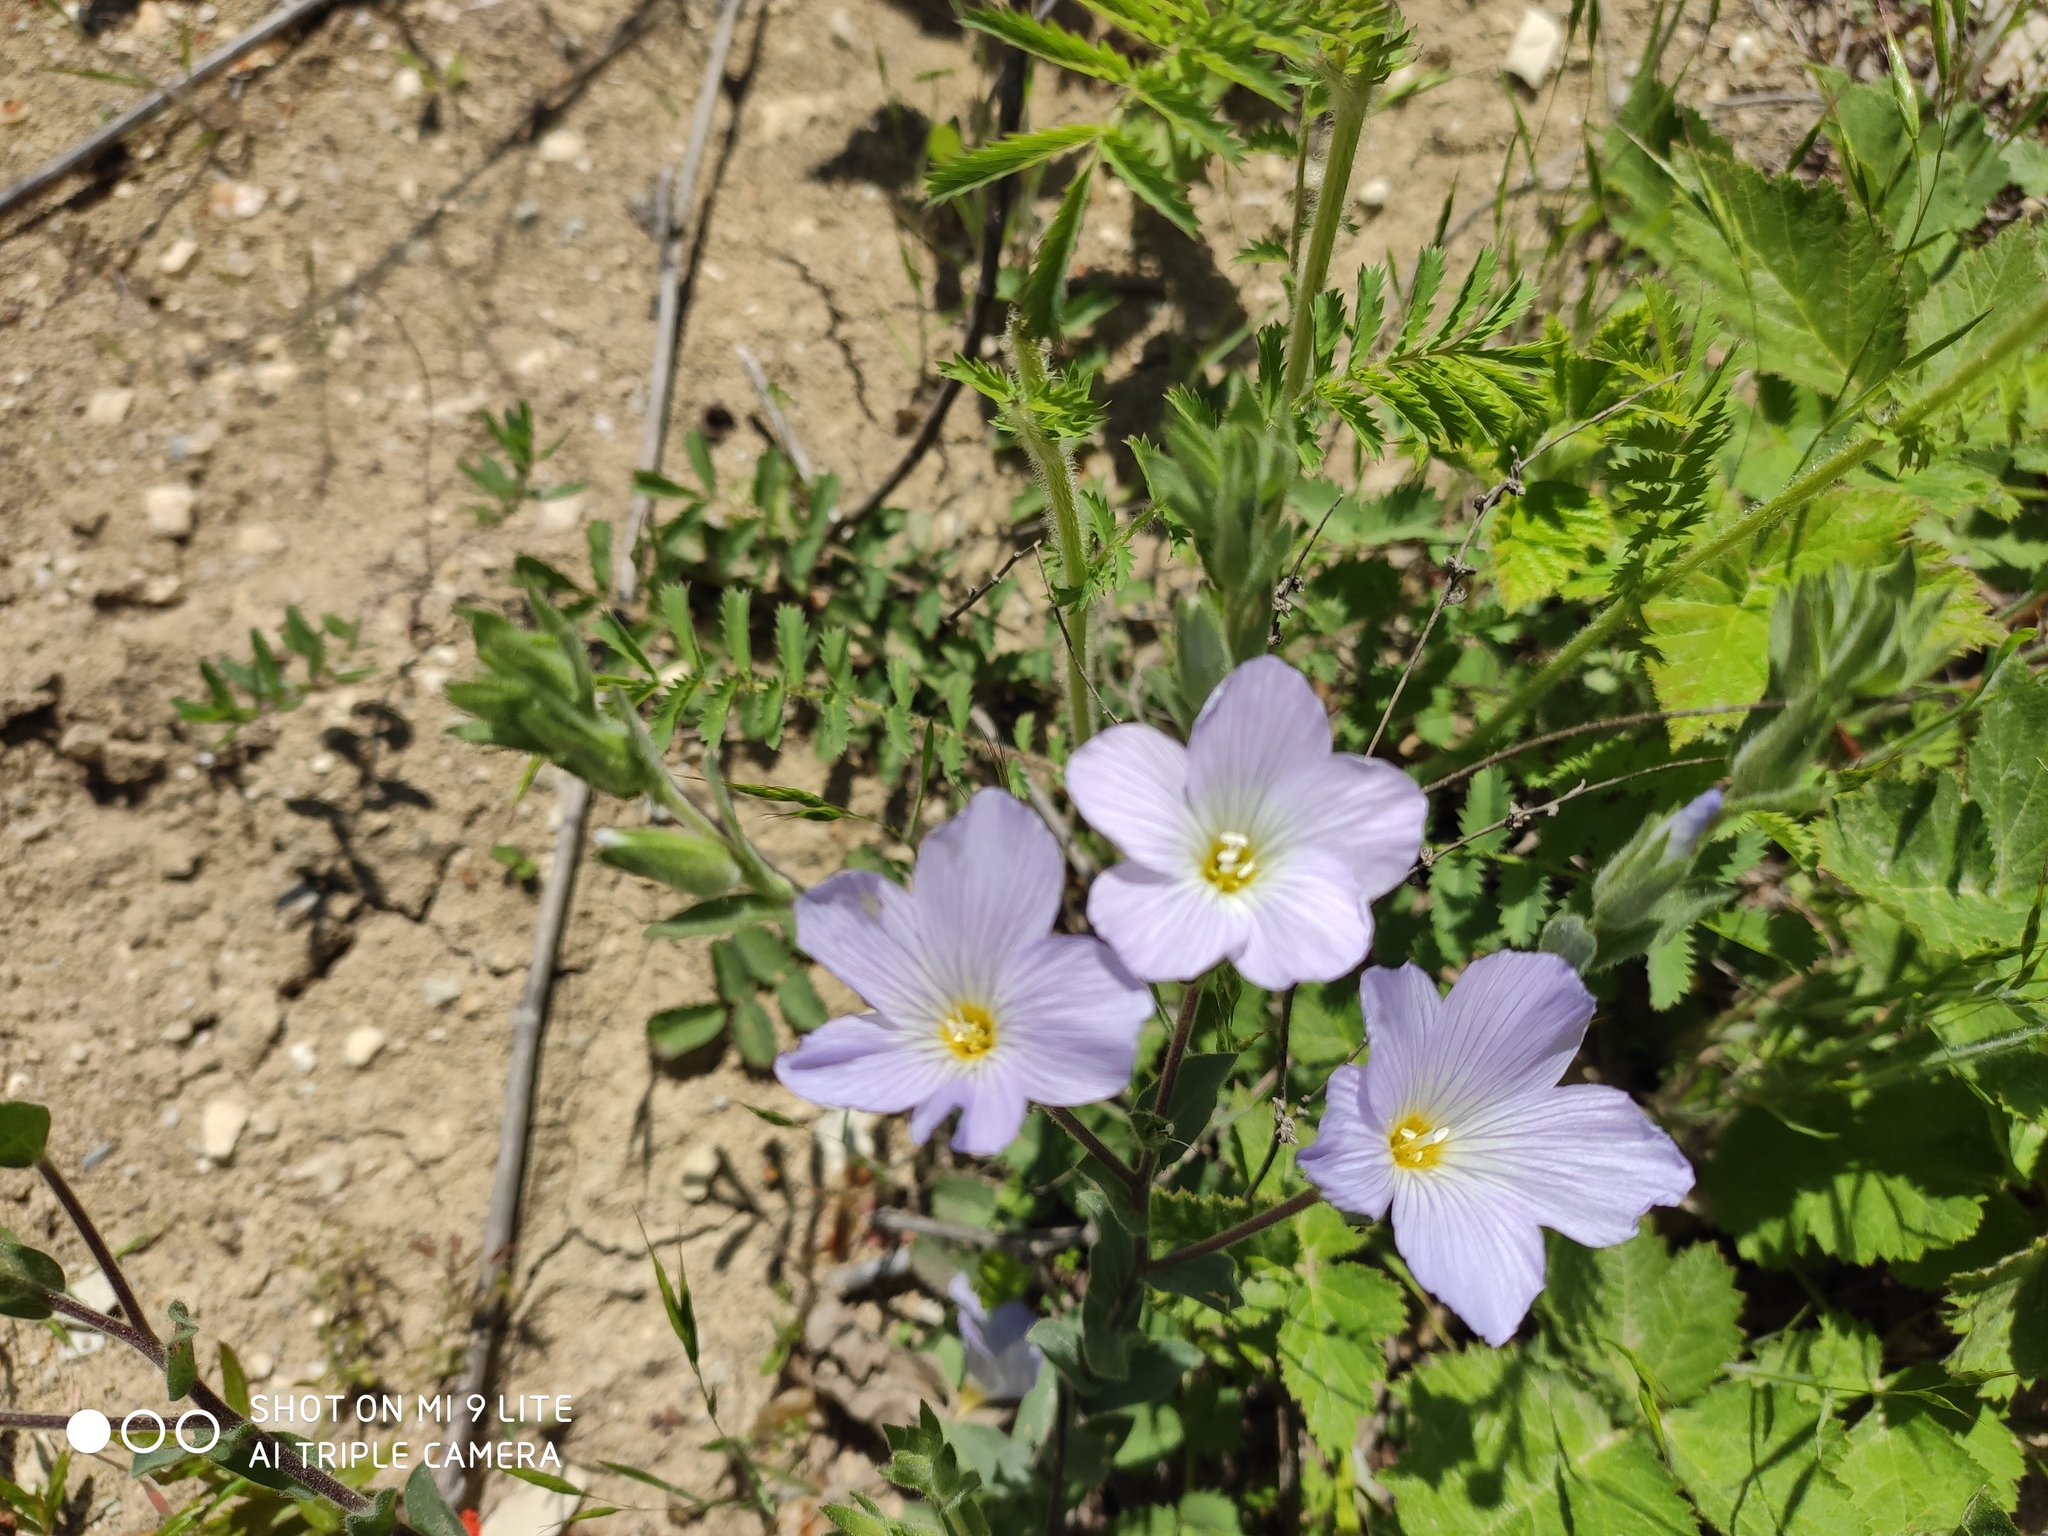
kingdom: Plantae
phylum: Tracheophyta
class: Magnoliopsida
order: Malpighiales
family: Linaceae
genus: Linum
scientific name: Linum hirsutum
